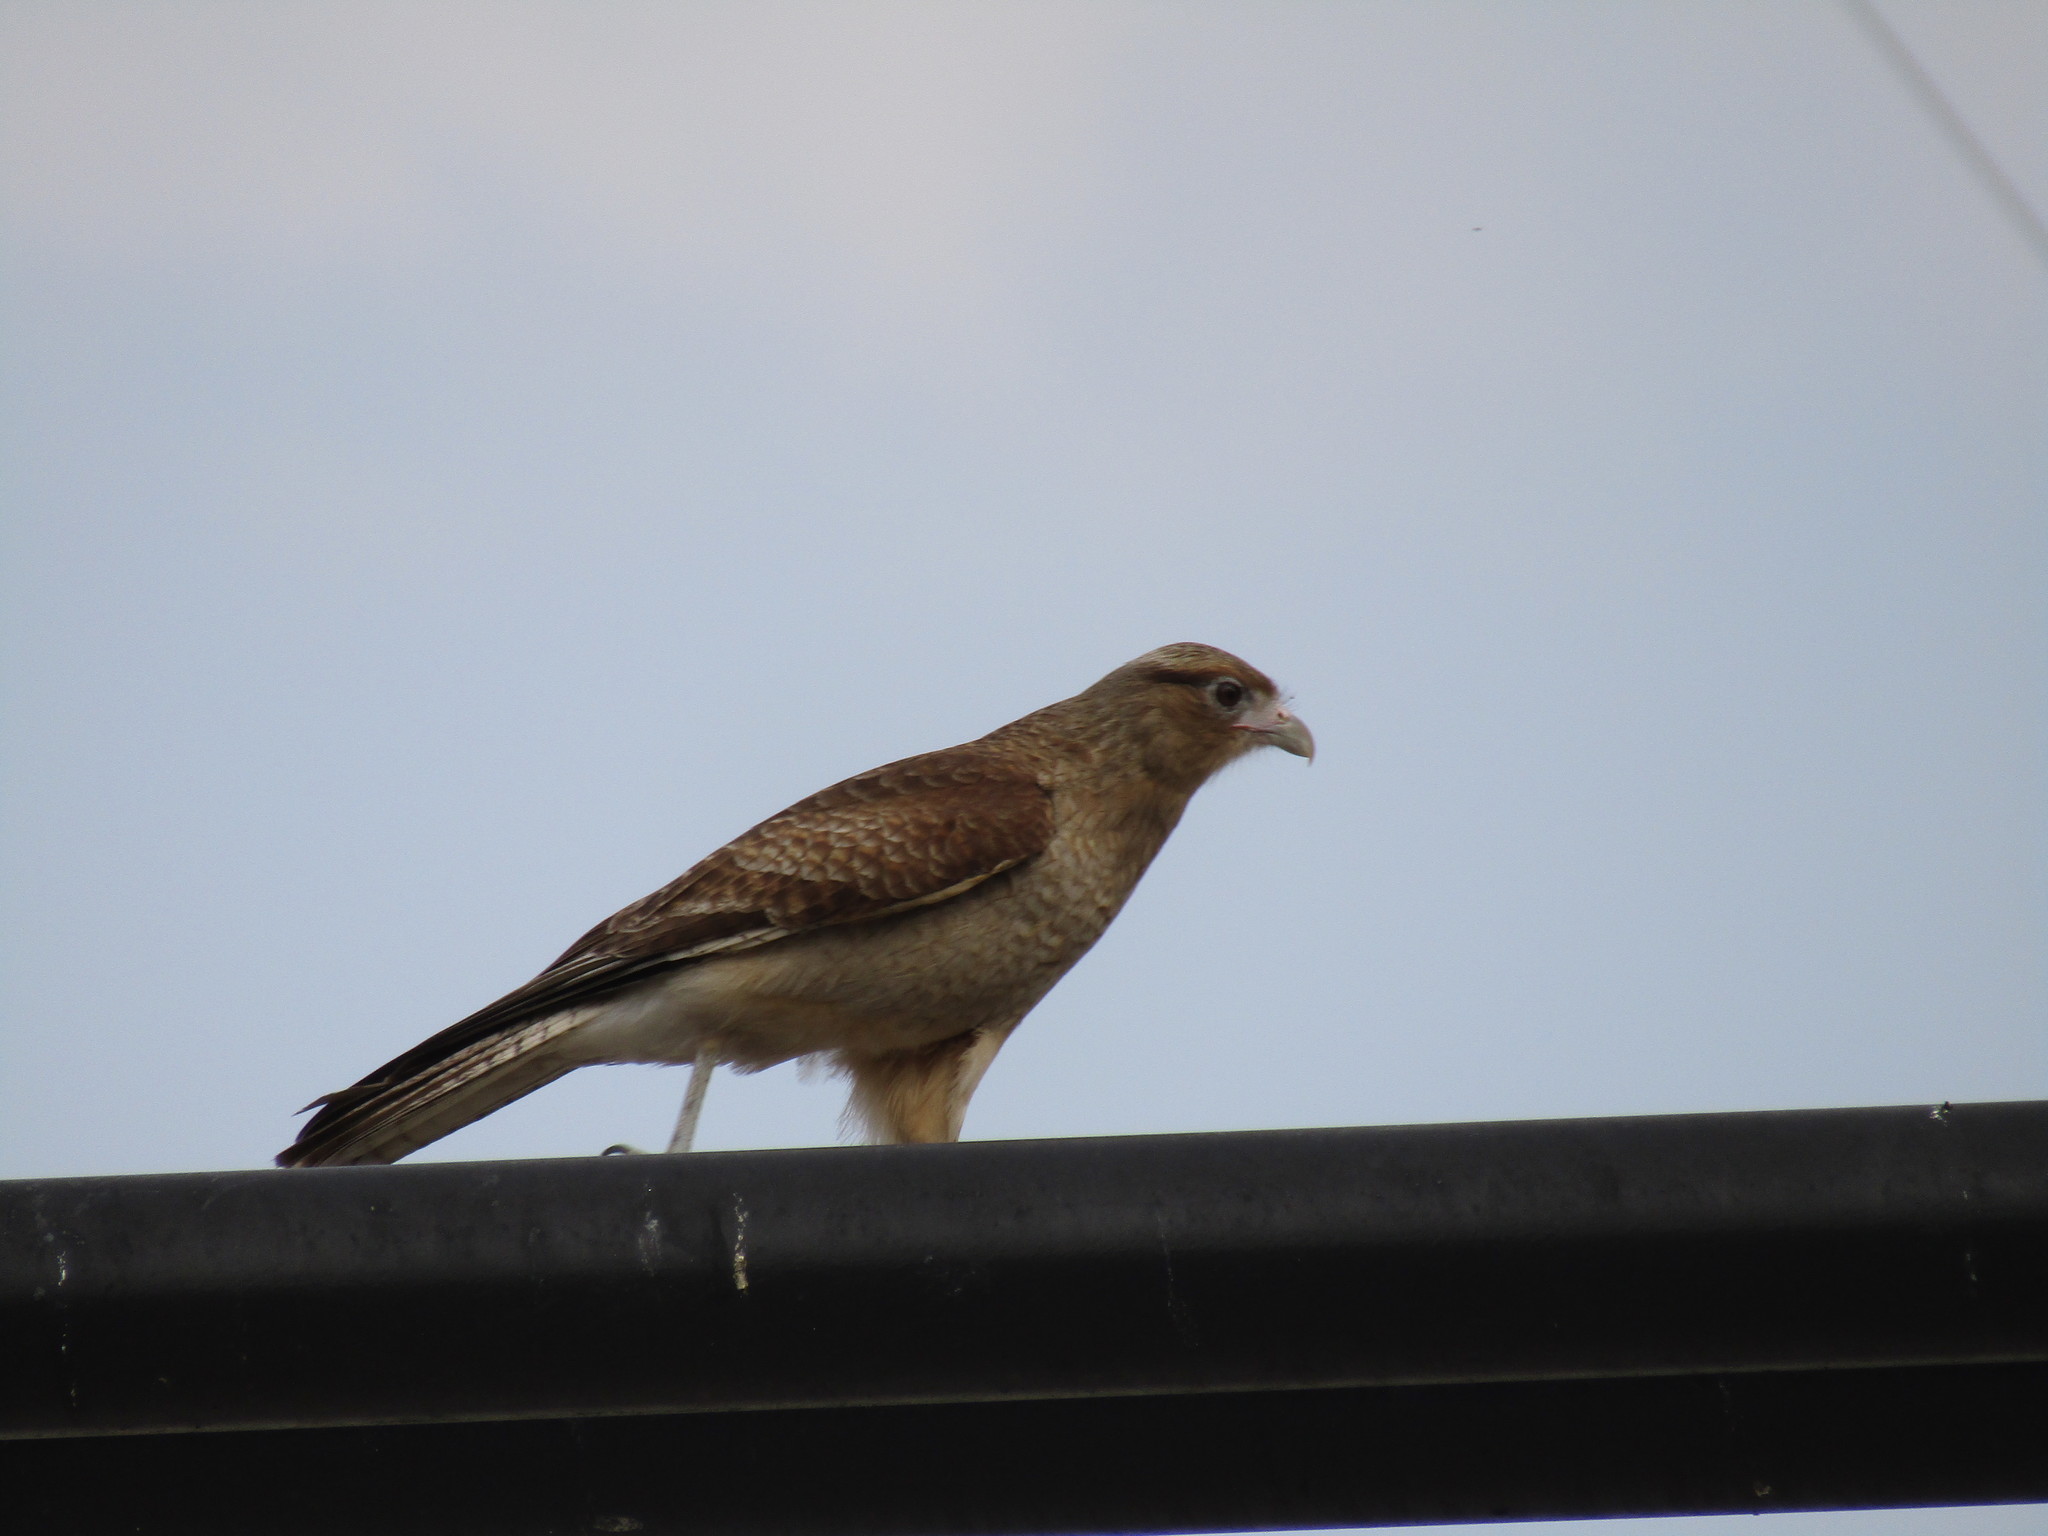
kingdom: Animalia
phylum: Chordata
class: Aves
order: Falconiformes
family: Falconidae
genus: Daptrius
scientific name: Daptrius
